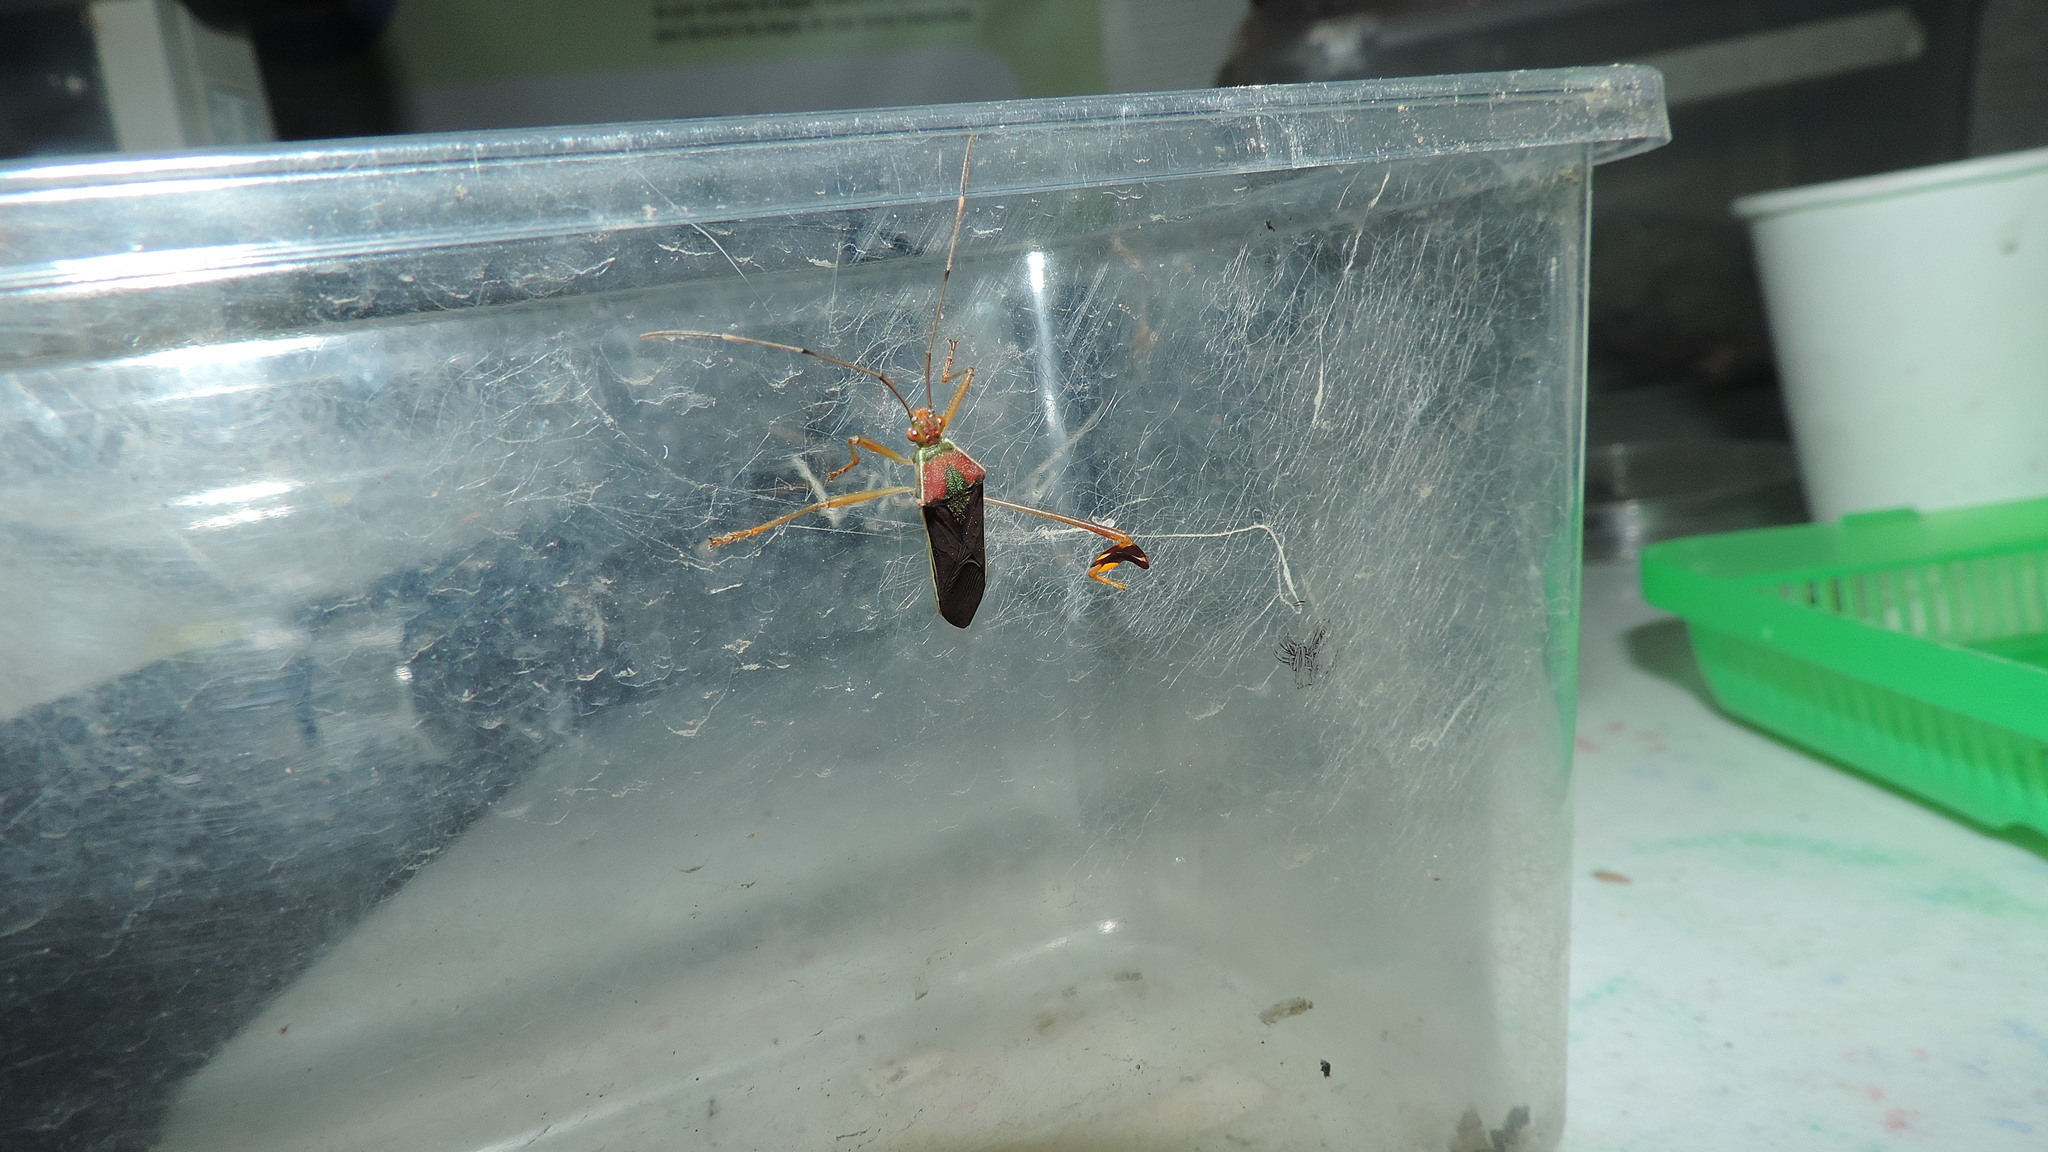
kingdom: Animalia
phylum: Arthropoda
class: Insecta
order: Hemiptera
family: Coreidae
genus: Anisoscelis
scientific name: Anisoscelis scutellaris
